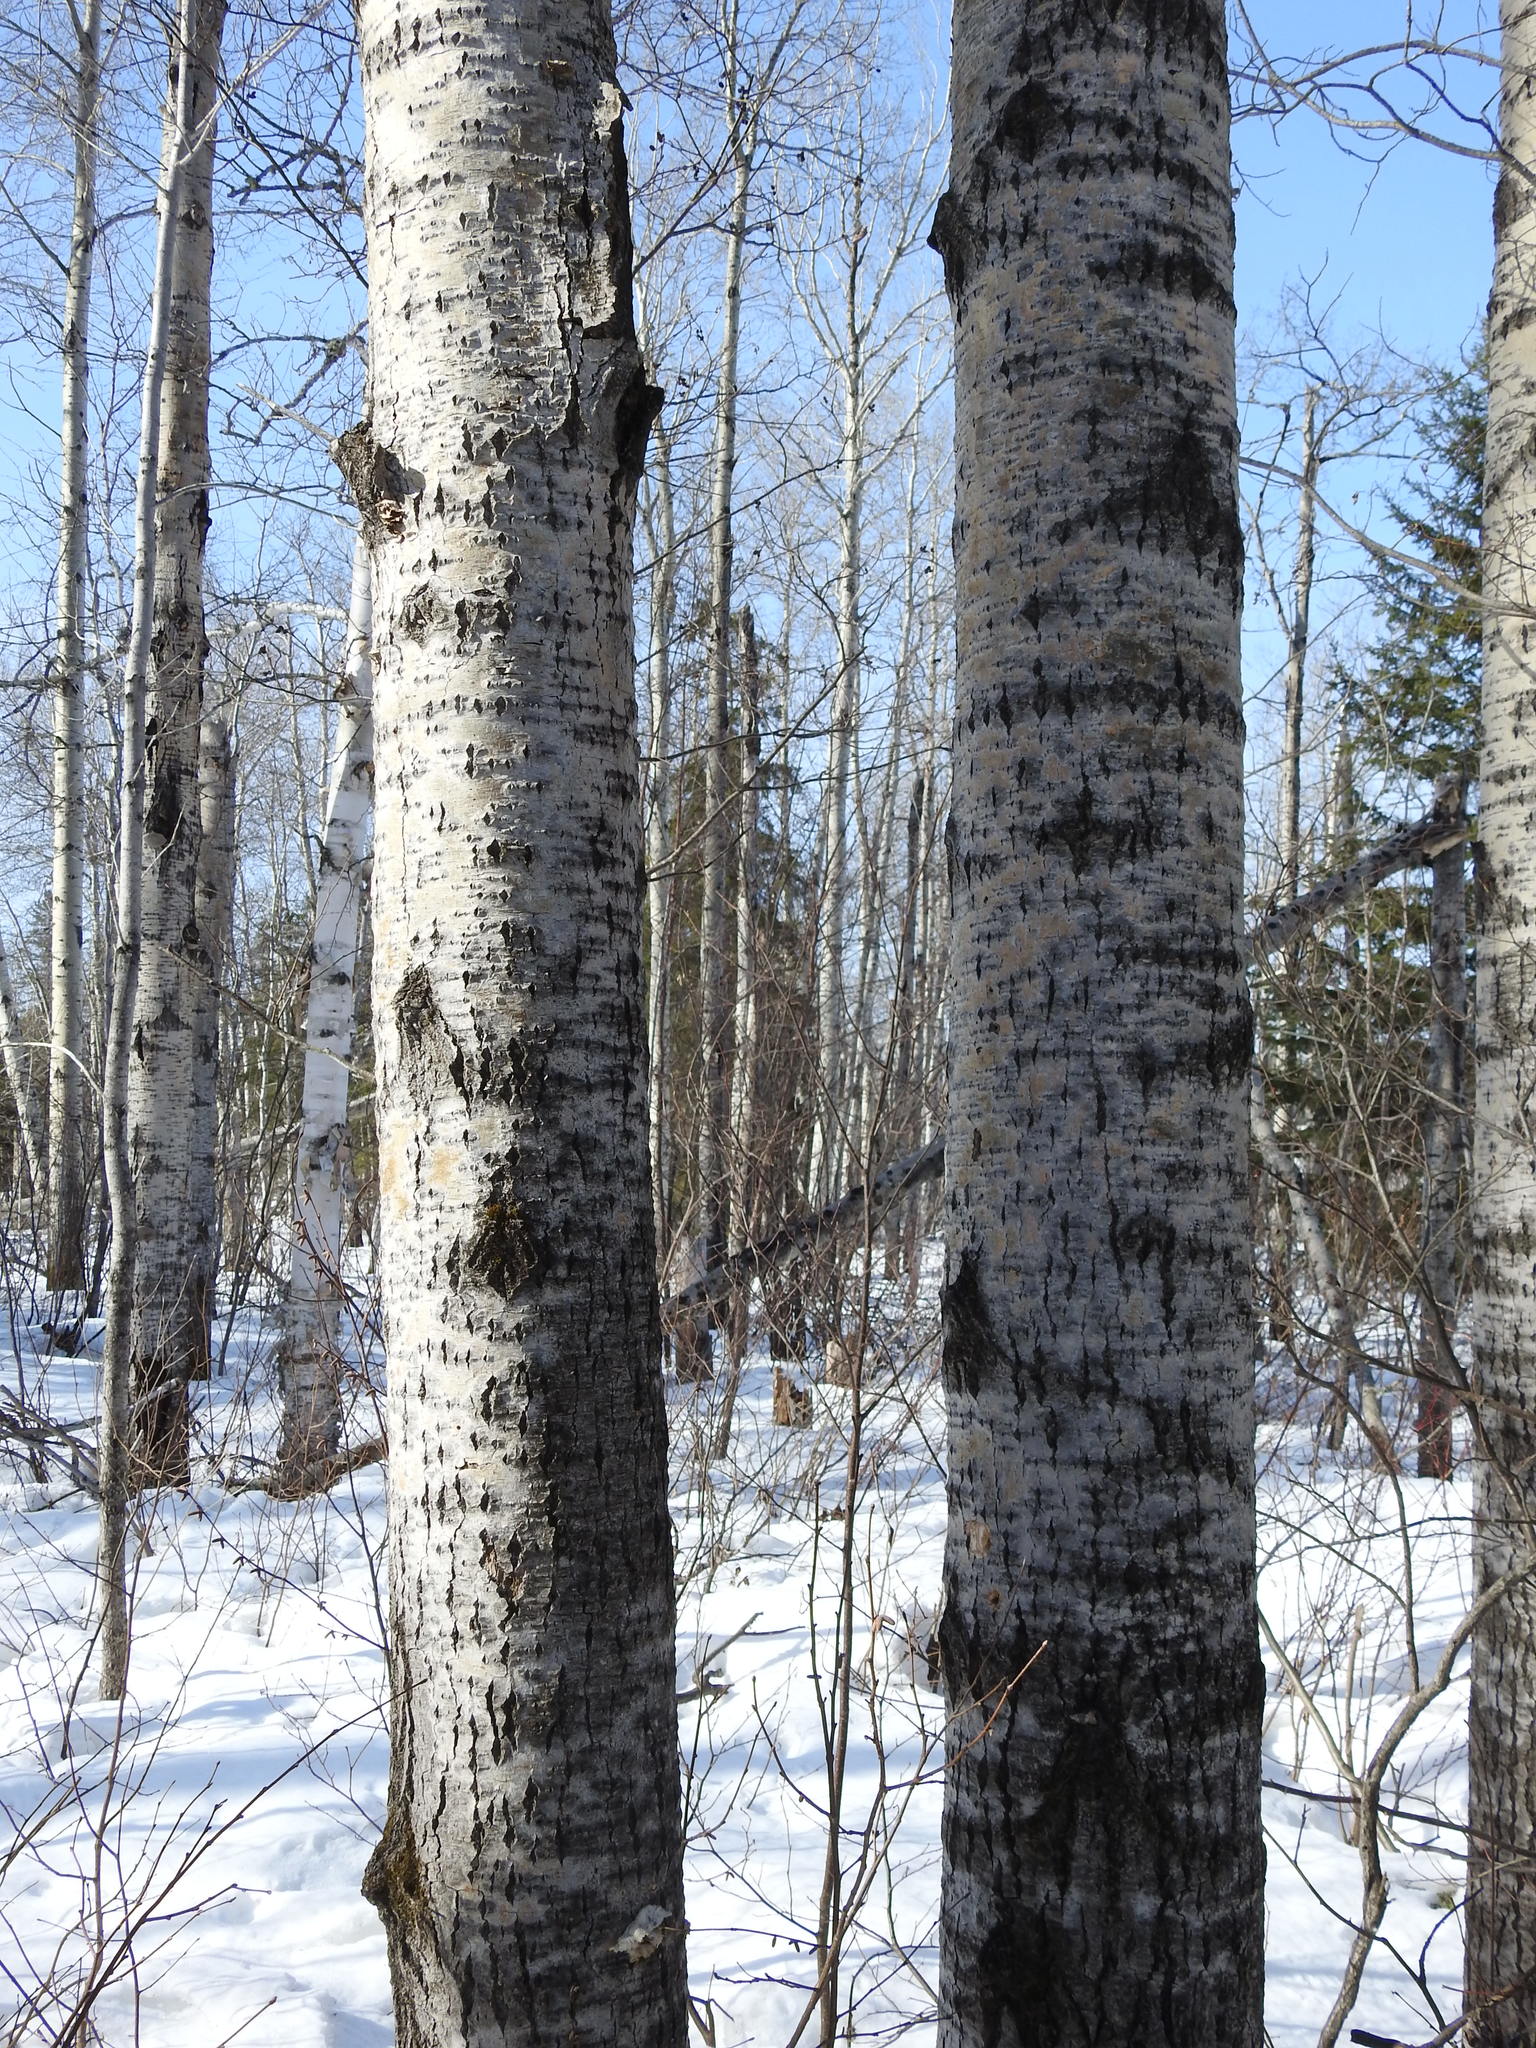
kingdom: Plantae
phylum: Tracheophyta
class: Magnoliopsida
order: Malpighiales
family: Salicaceae
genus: Populus
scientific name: Populus tremuloides
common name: Quaking aspen
